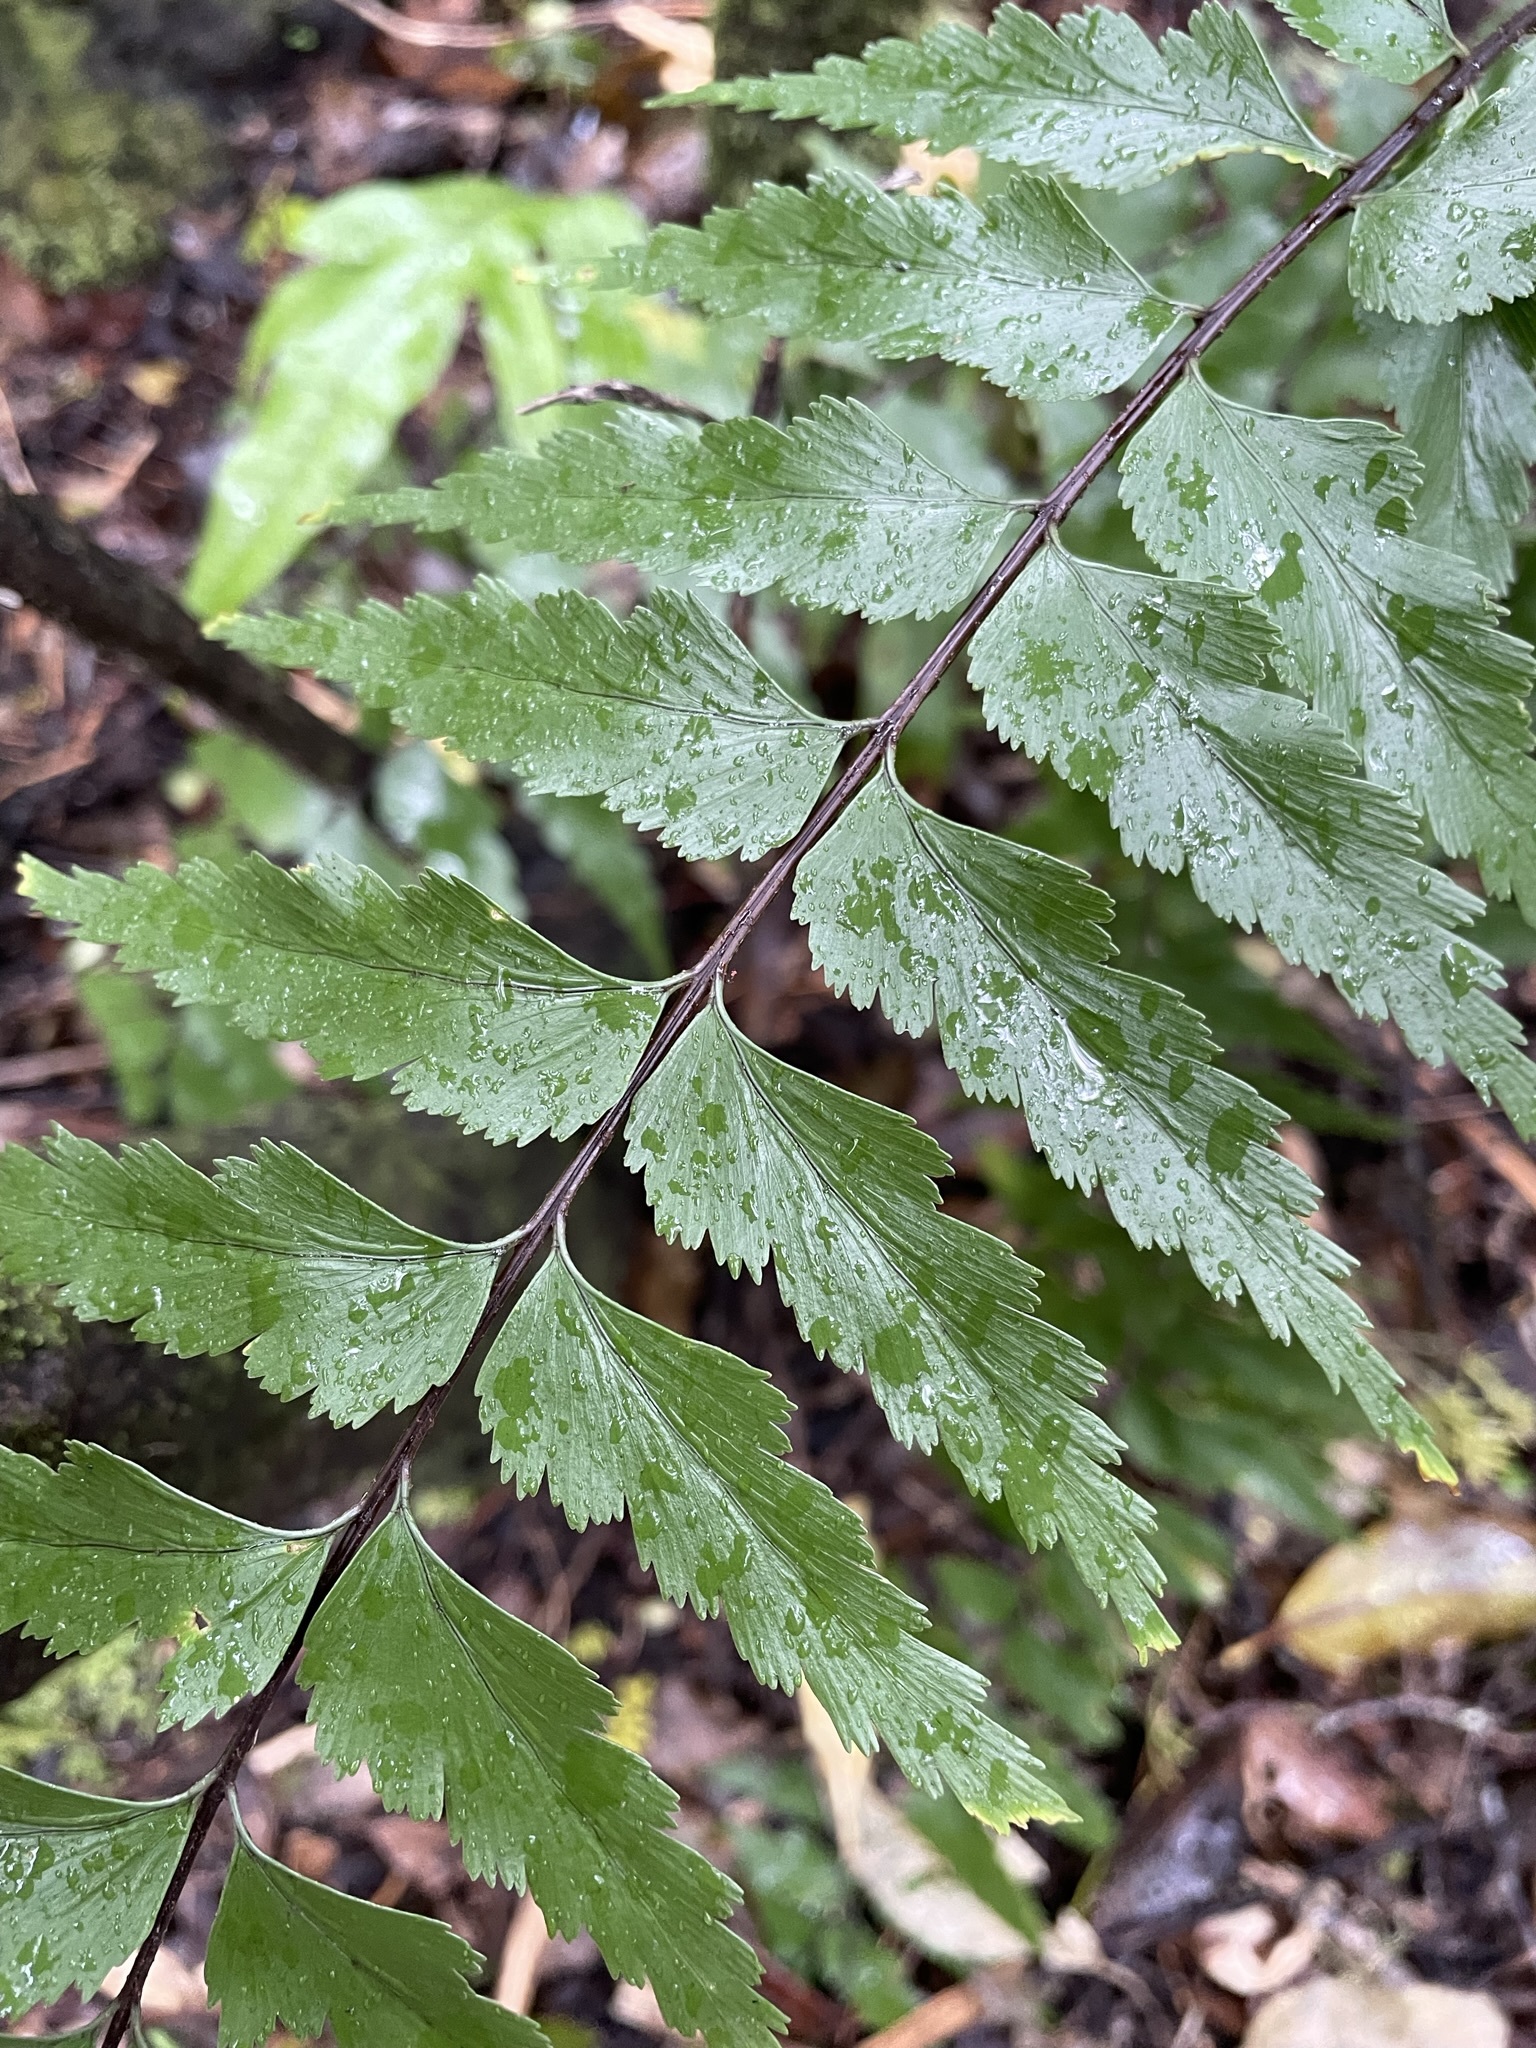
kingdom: Plantae
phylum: Tracheophyta
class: Polypodiopsida
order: Polypodiales
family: Aspleniaceae
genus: Asplenium
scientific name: Asplenium polyodon
